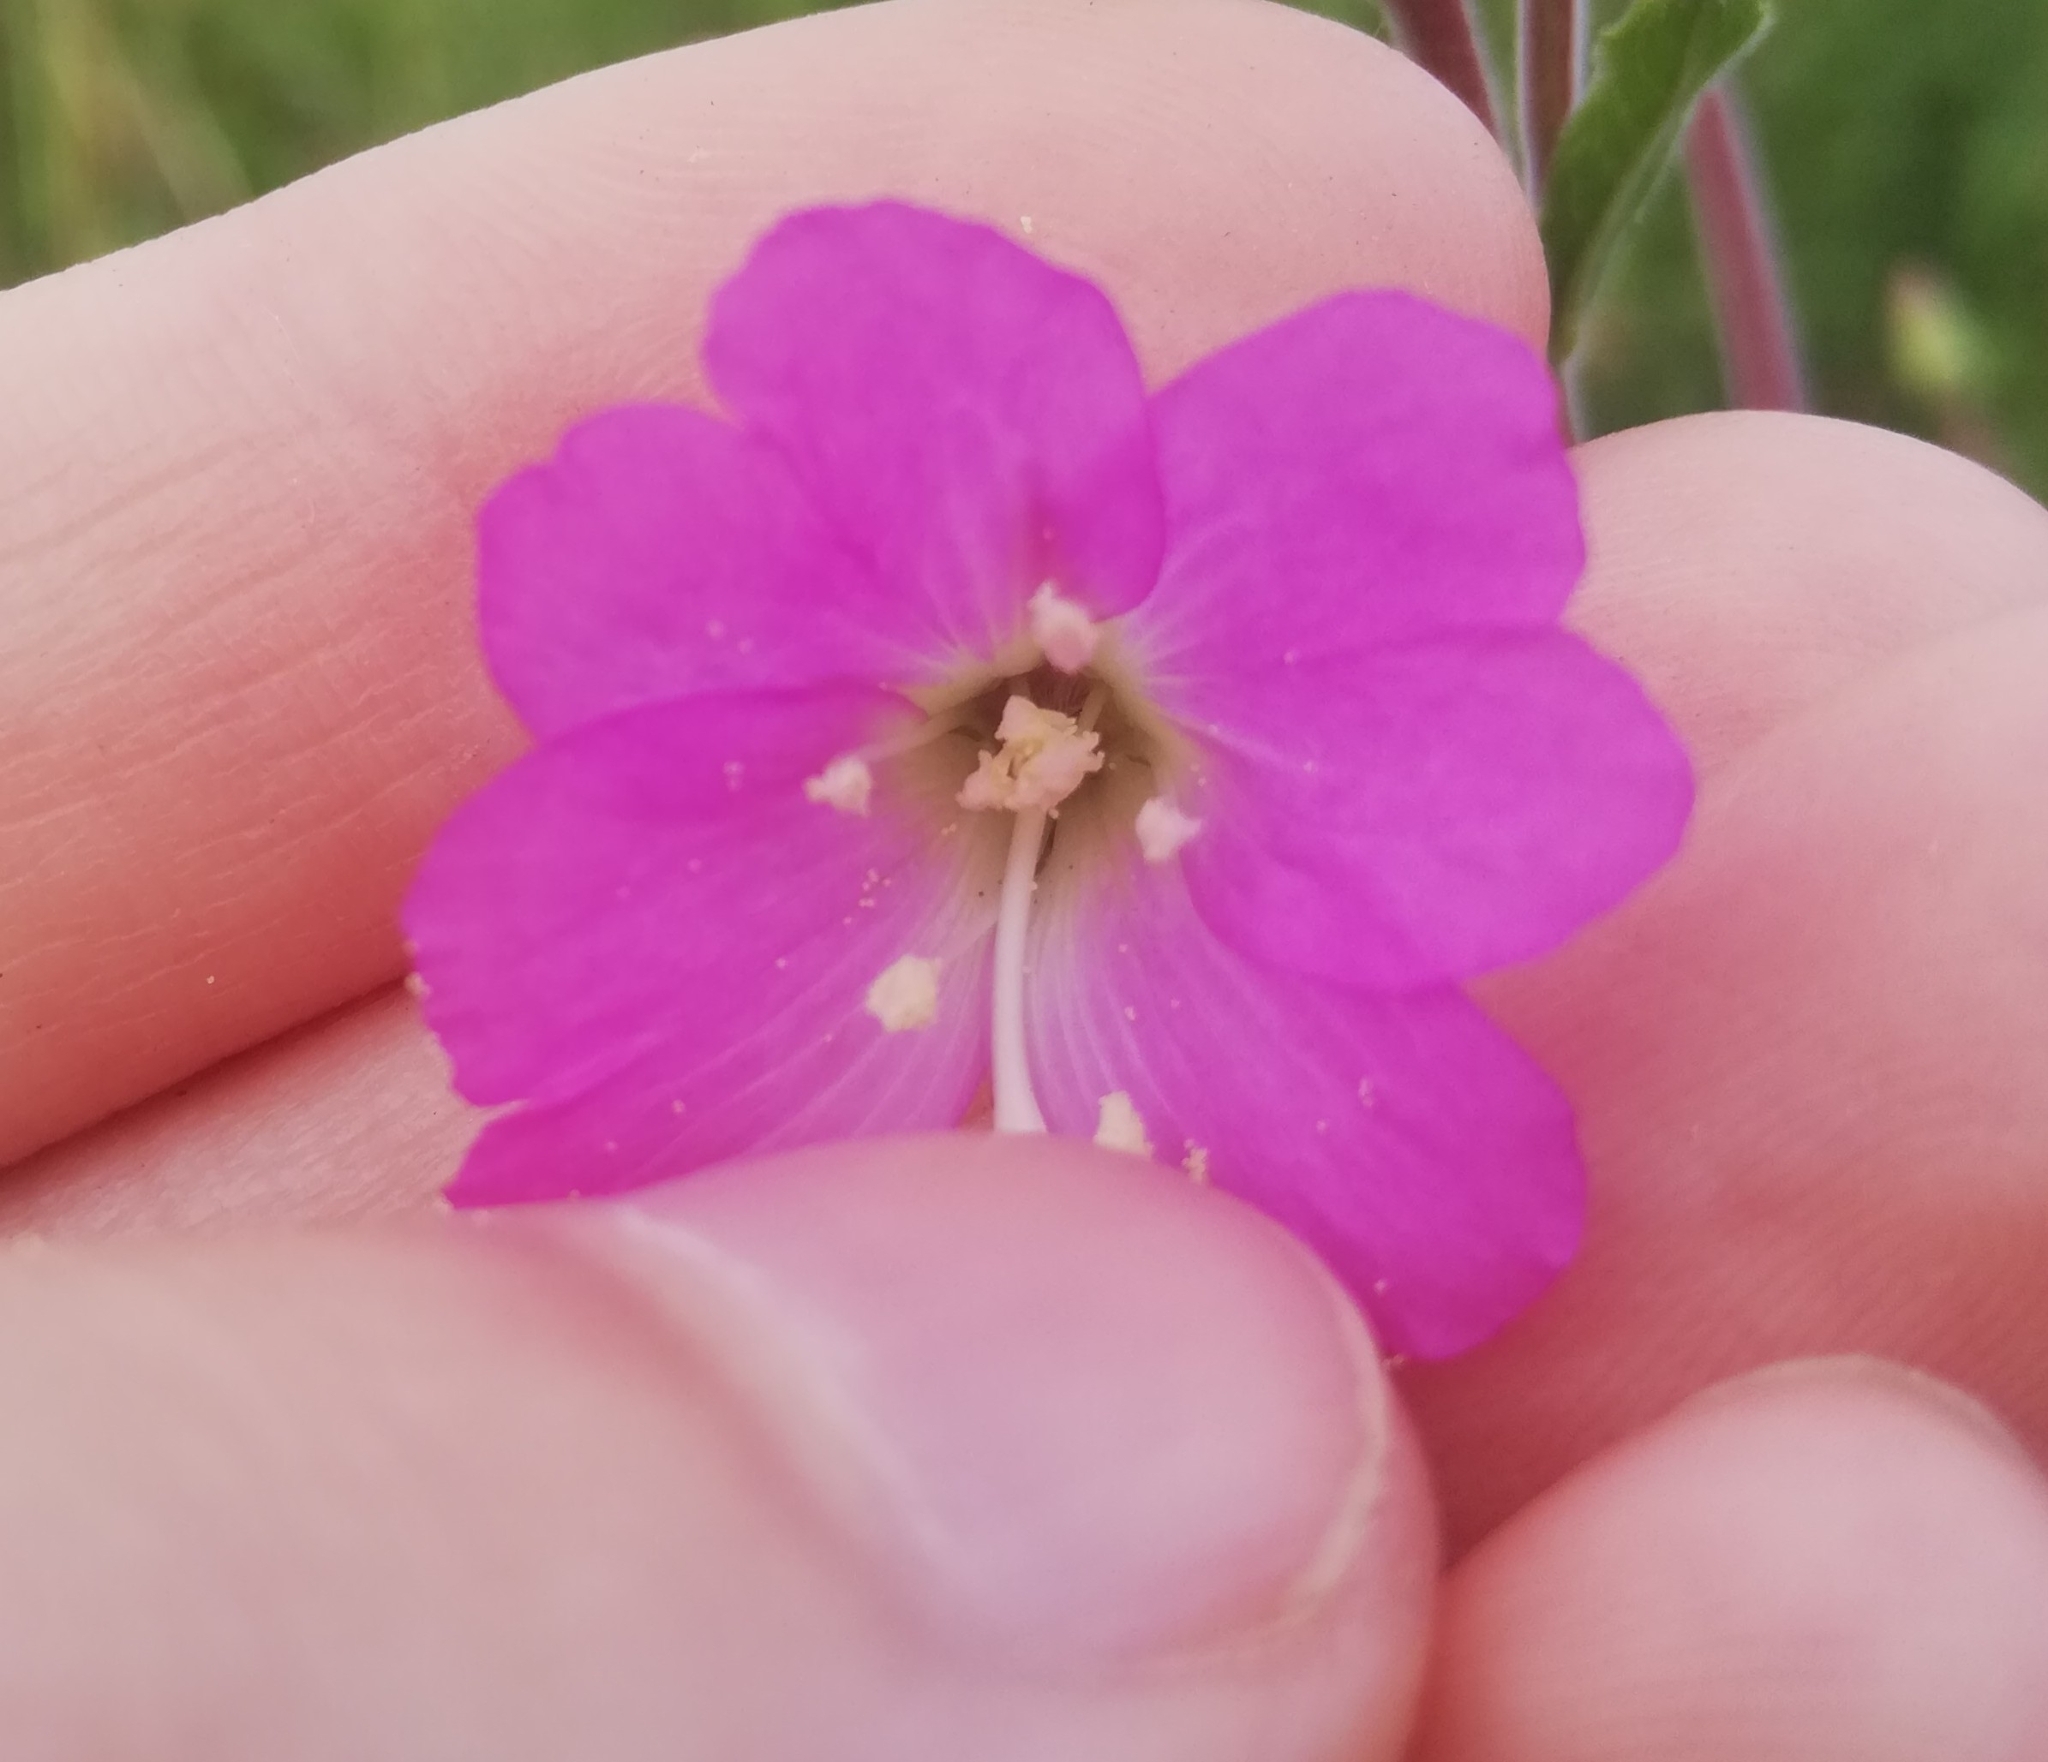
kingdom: Plantae
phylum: Tracheophyta
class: Magnoliopsida
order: Myrtales
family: Onagraceae
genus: Epilobium
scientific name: Epilobium hirsutum
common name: Great willowherb
